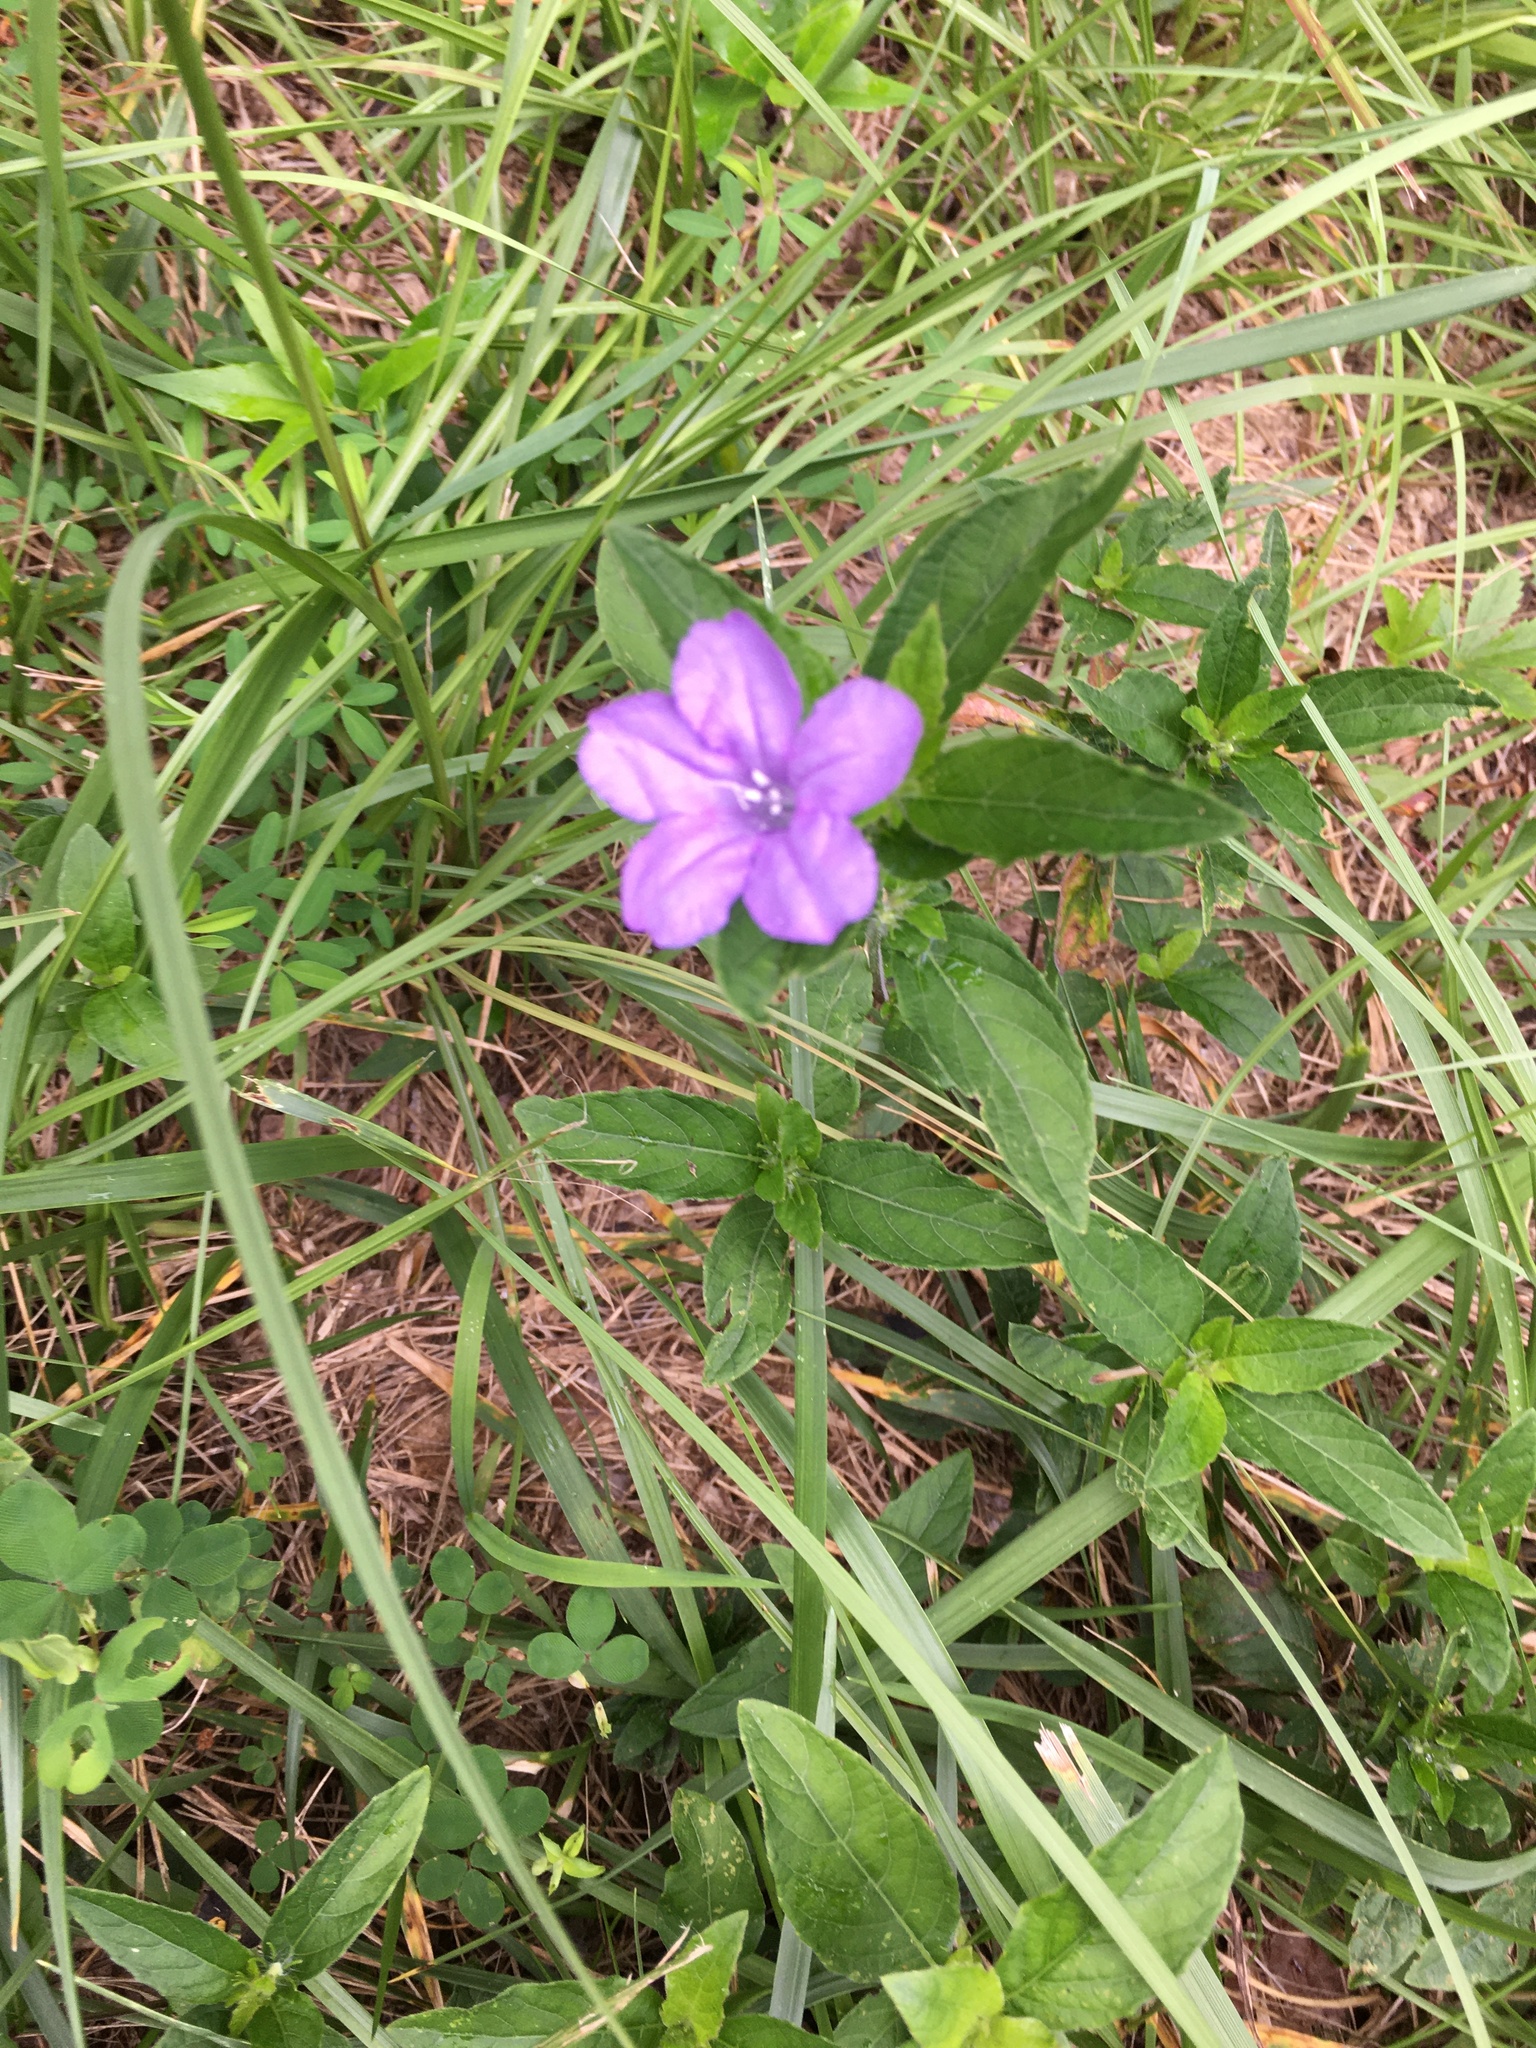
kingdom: Plantae
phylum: Tracheophyta
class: Magnoliopsida
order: Lamiales
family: Acanthaceae
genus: Ruellia
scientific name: Ruellia caroliniensis
